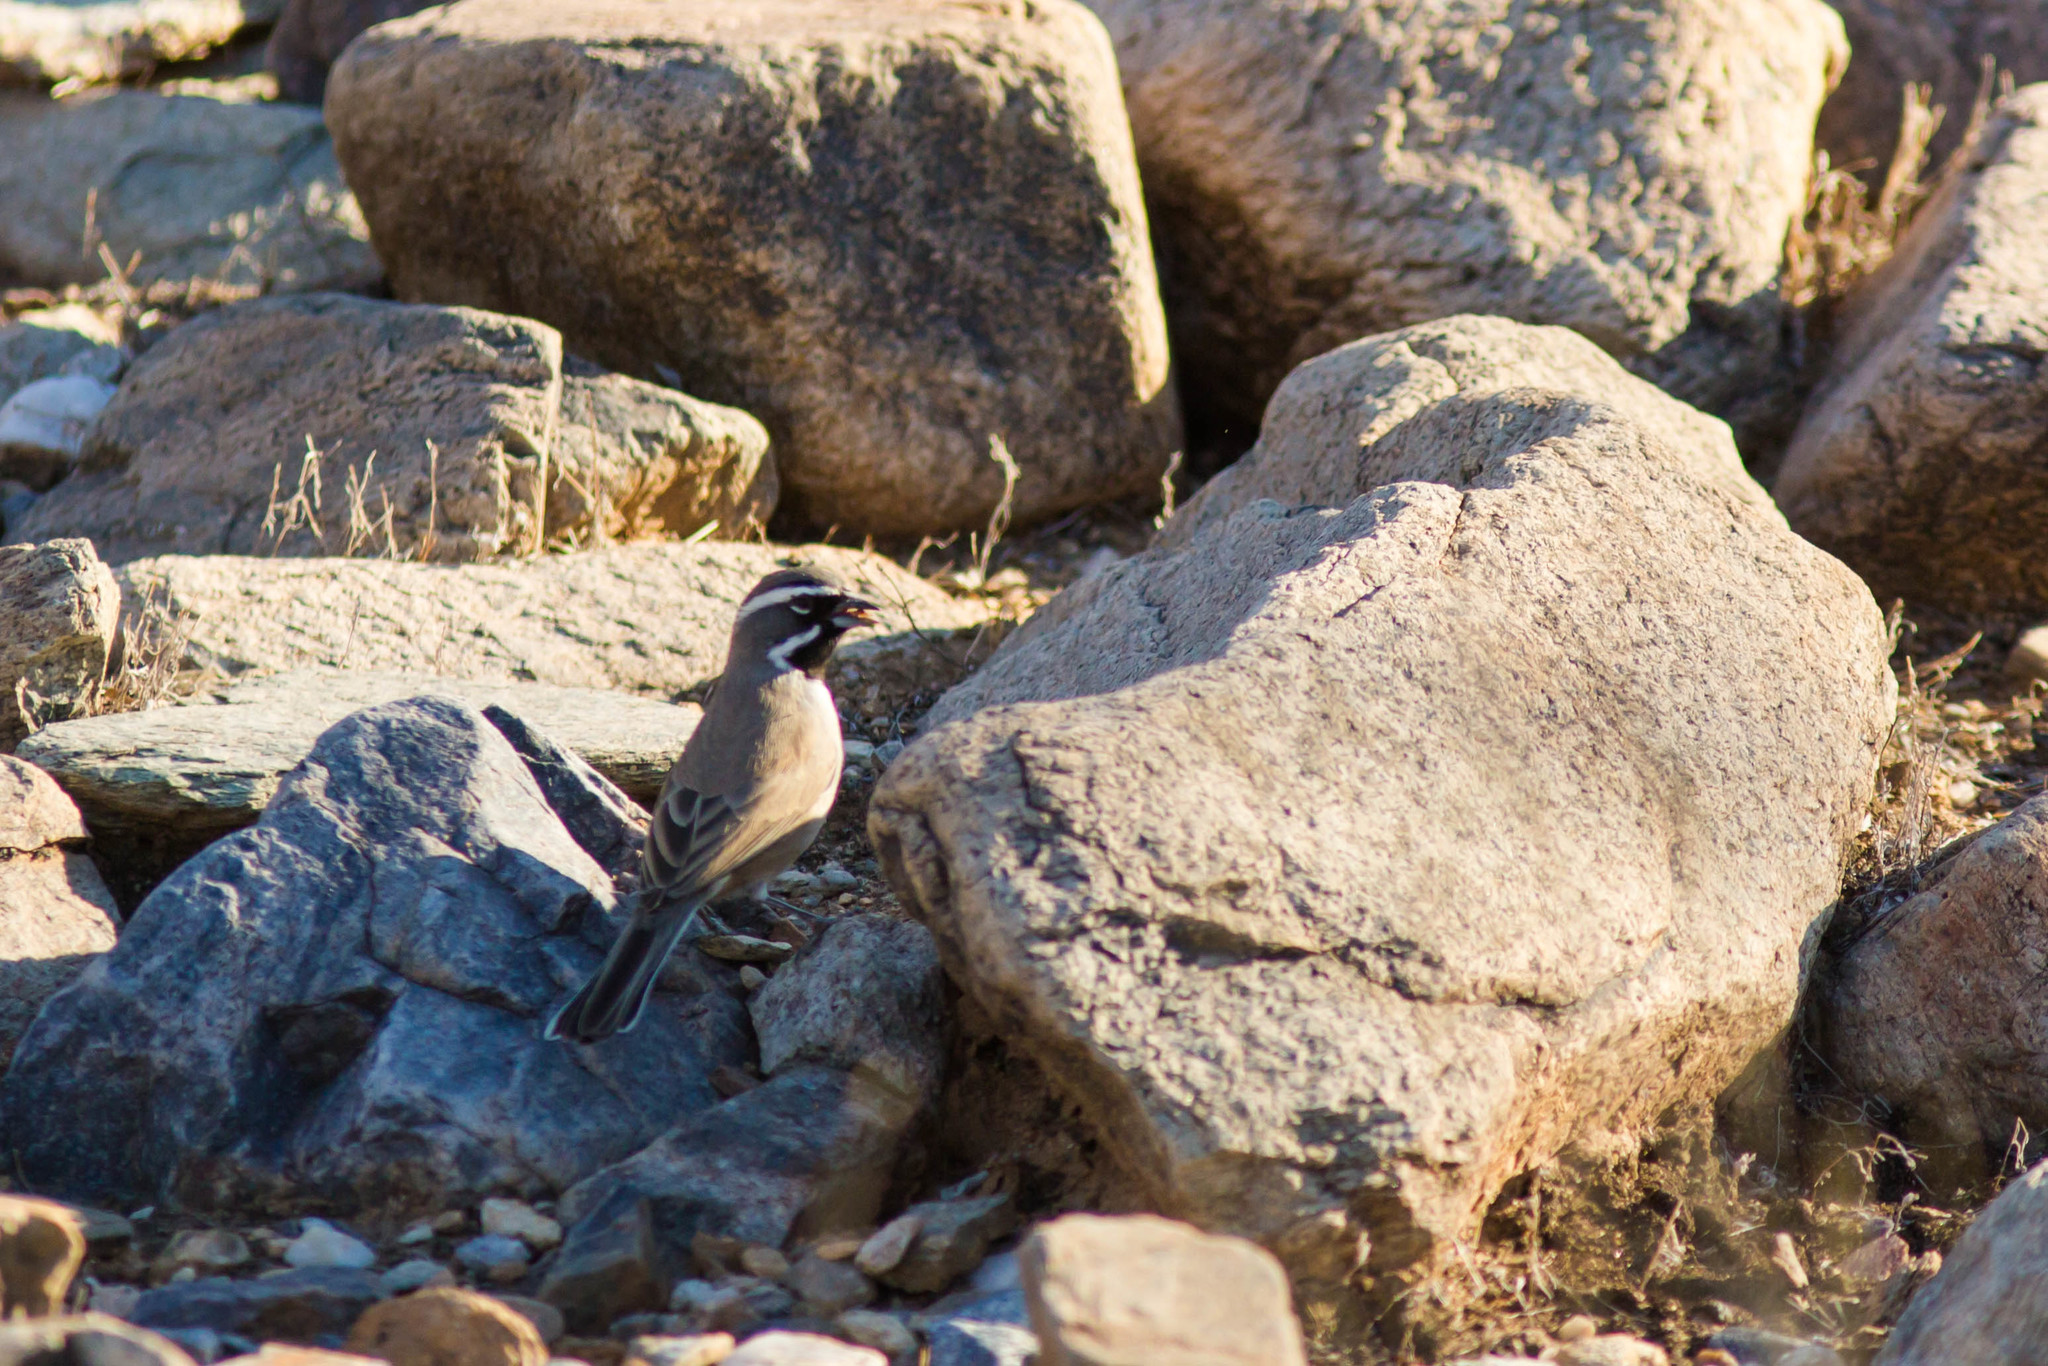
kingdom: Animalia
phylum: Chordata
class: Aves
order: Passeriformes
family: Passerellidae
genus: Amphispiza
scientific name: Amphispiza bilineata
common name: Black-throated sparrow
